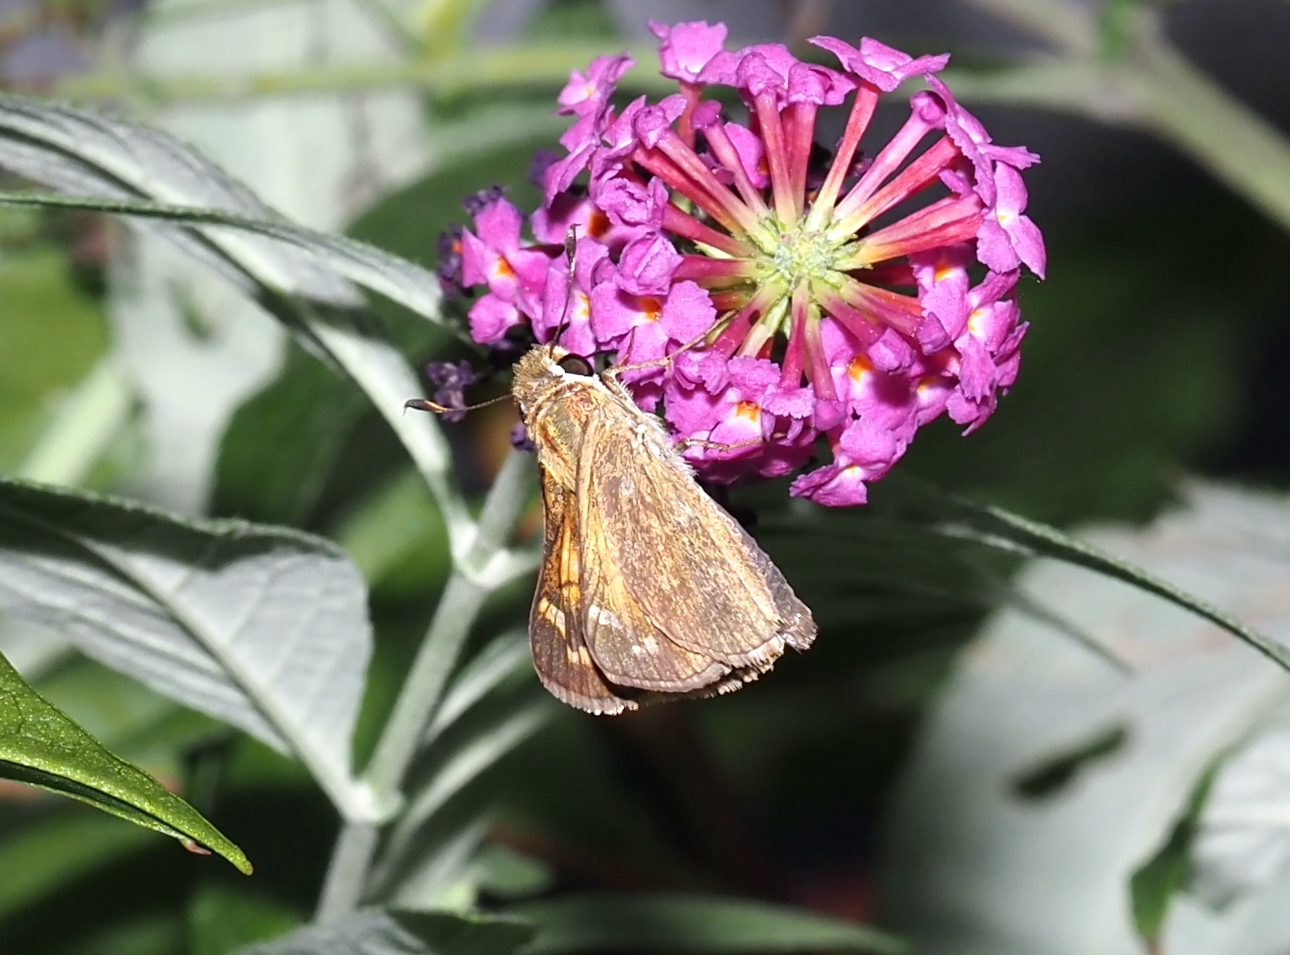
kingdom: Animalia
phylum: Arthropoda
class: Insecta
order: Lepidoptera
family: Hesperiidae
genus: Atalopedes
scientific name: Atalopedes
